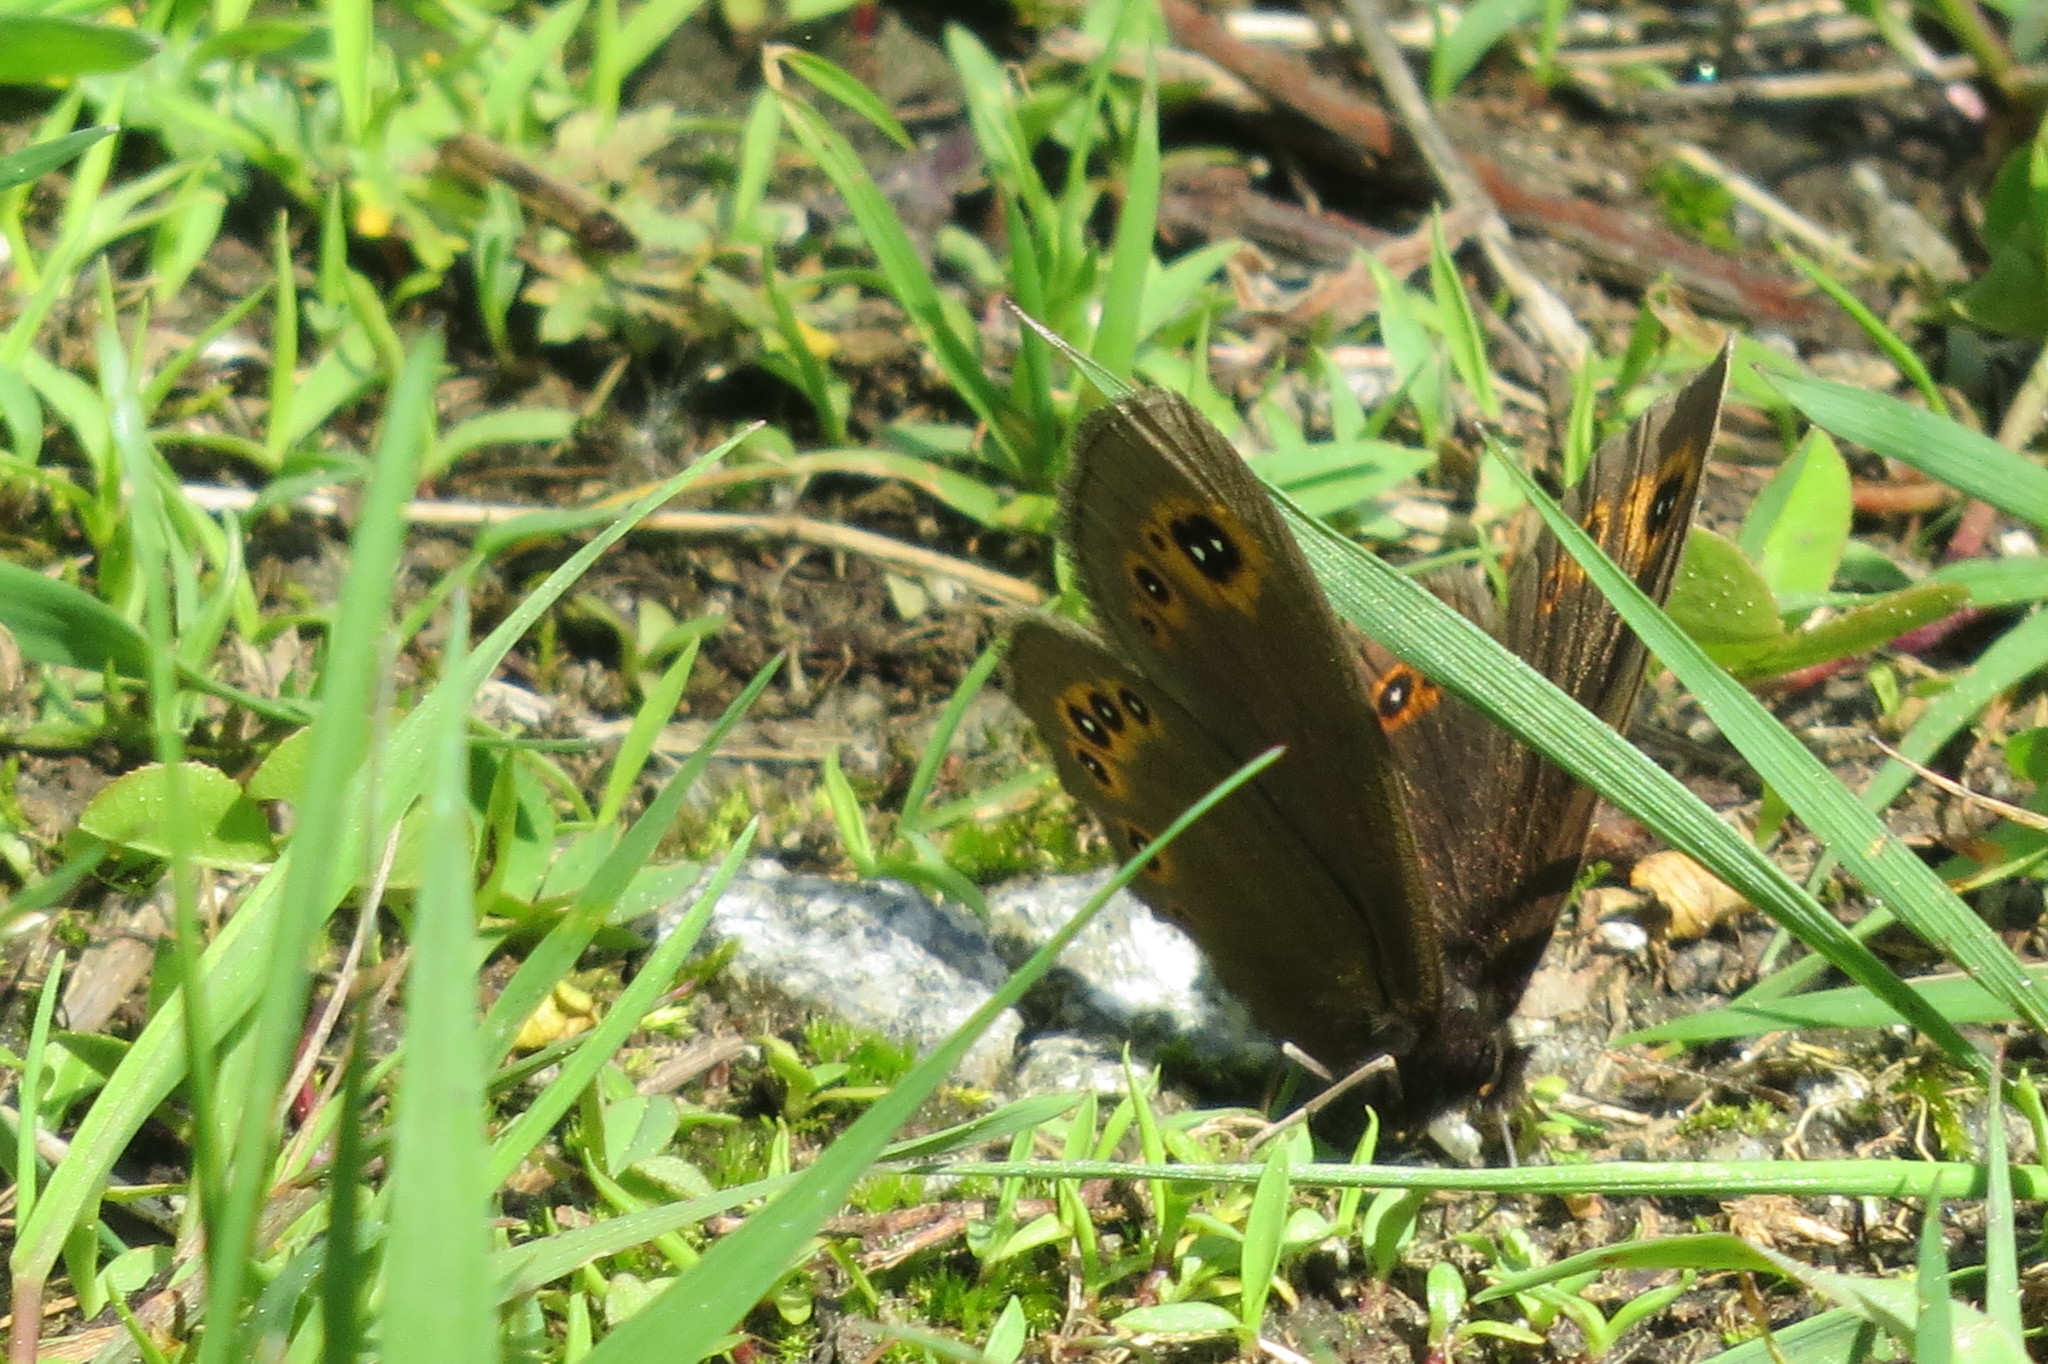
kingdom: Animalia
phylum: Arthropoda
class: Insecta
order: Lepidoptera
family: Nymphalidae
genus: Erebia
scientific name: Erebia medusa
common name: Woodland ringlet
